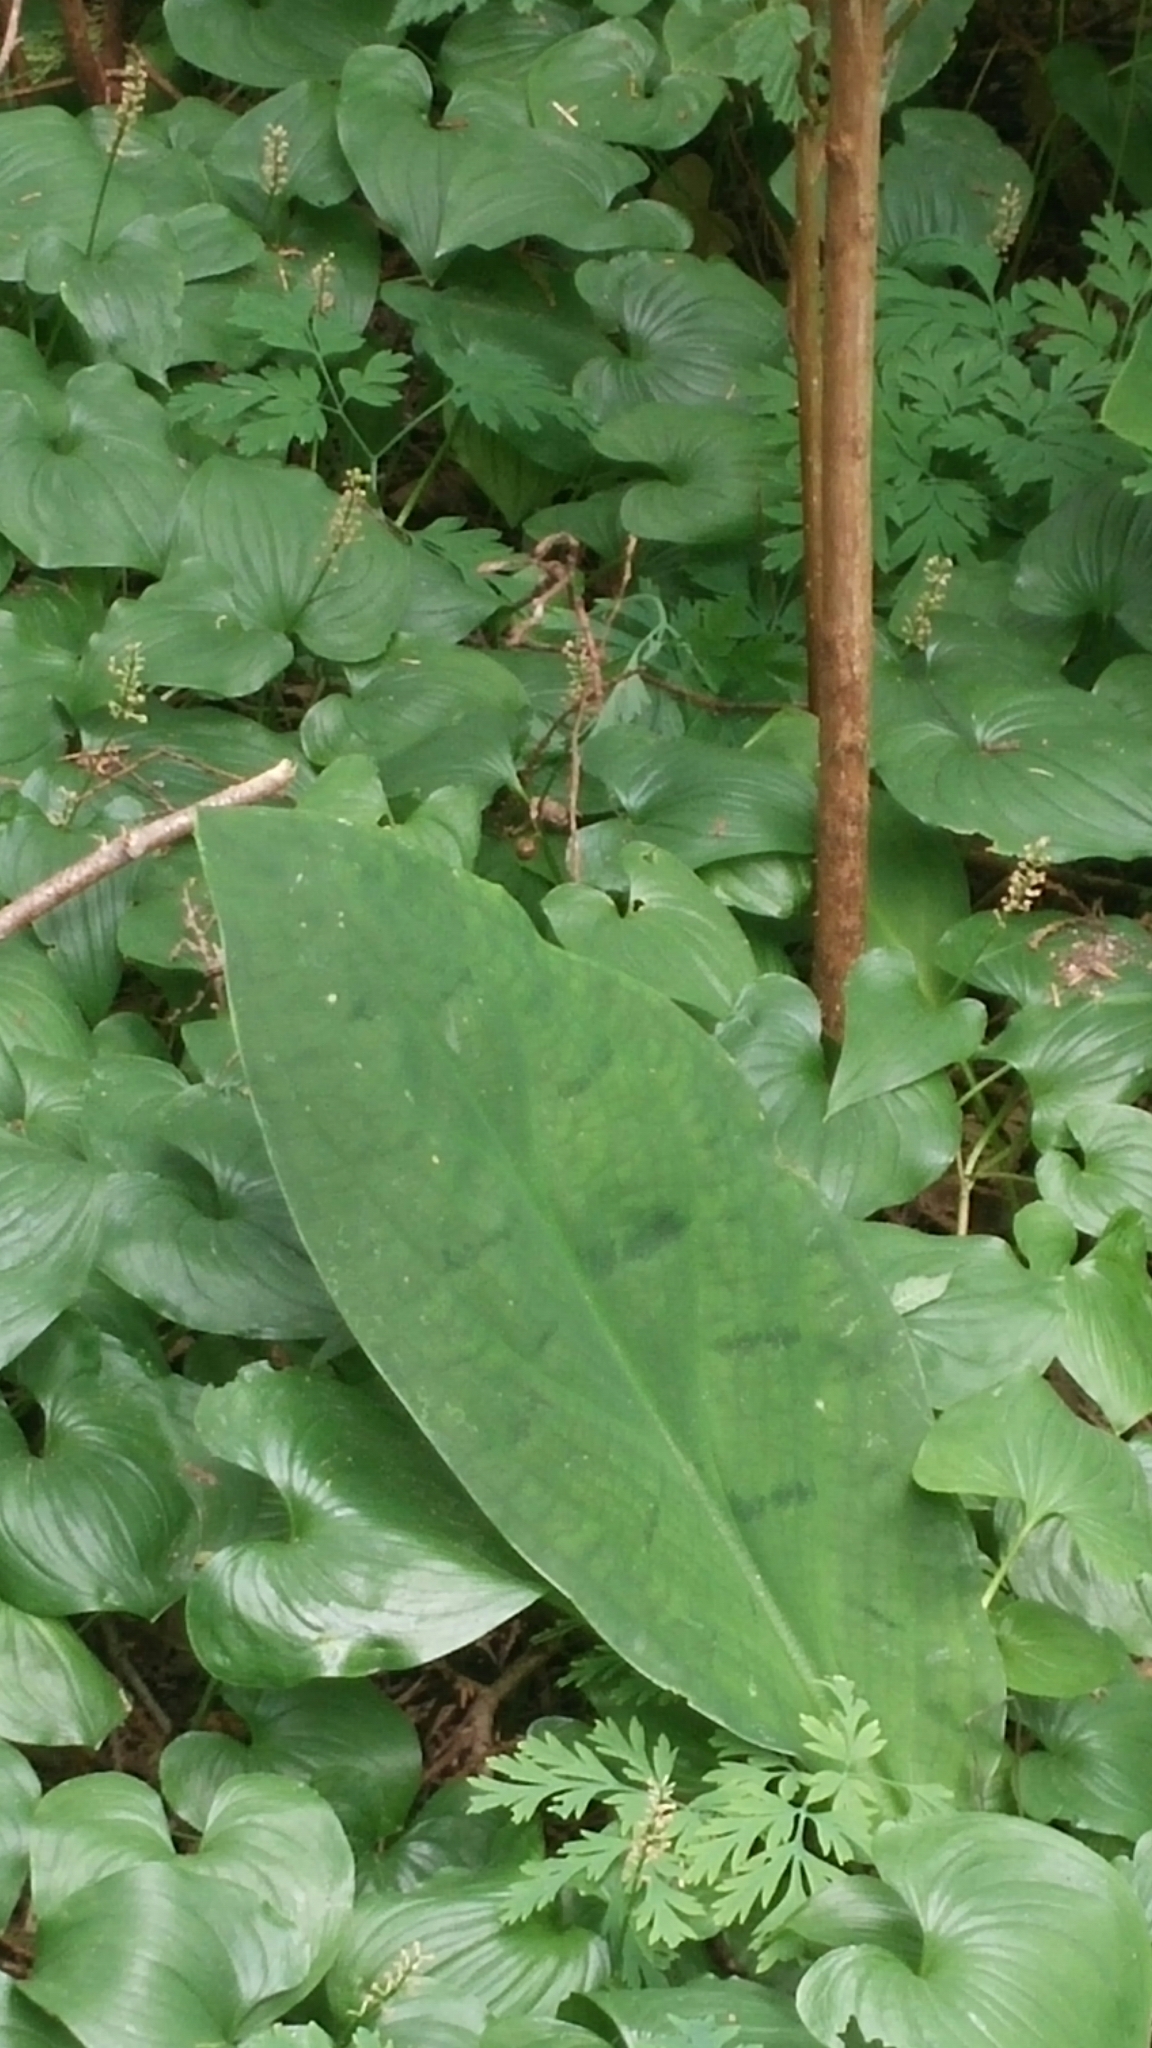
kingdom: Plantae
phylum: Tracheophyta
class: Liliopsida
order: Alismatales
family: Araceae
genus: Lysichiton
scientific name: Lysichiton americanus
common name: American skunk cabbage
